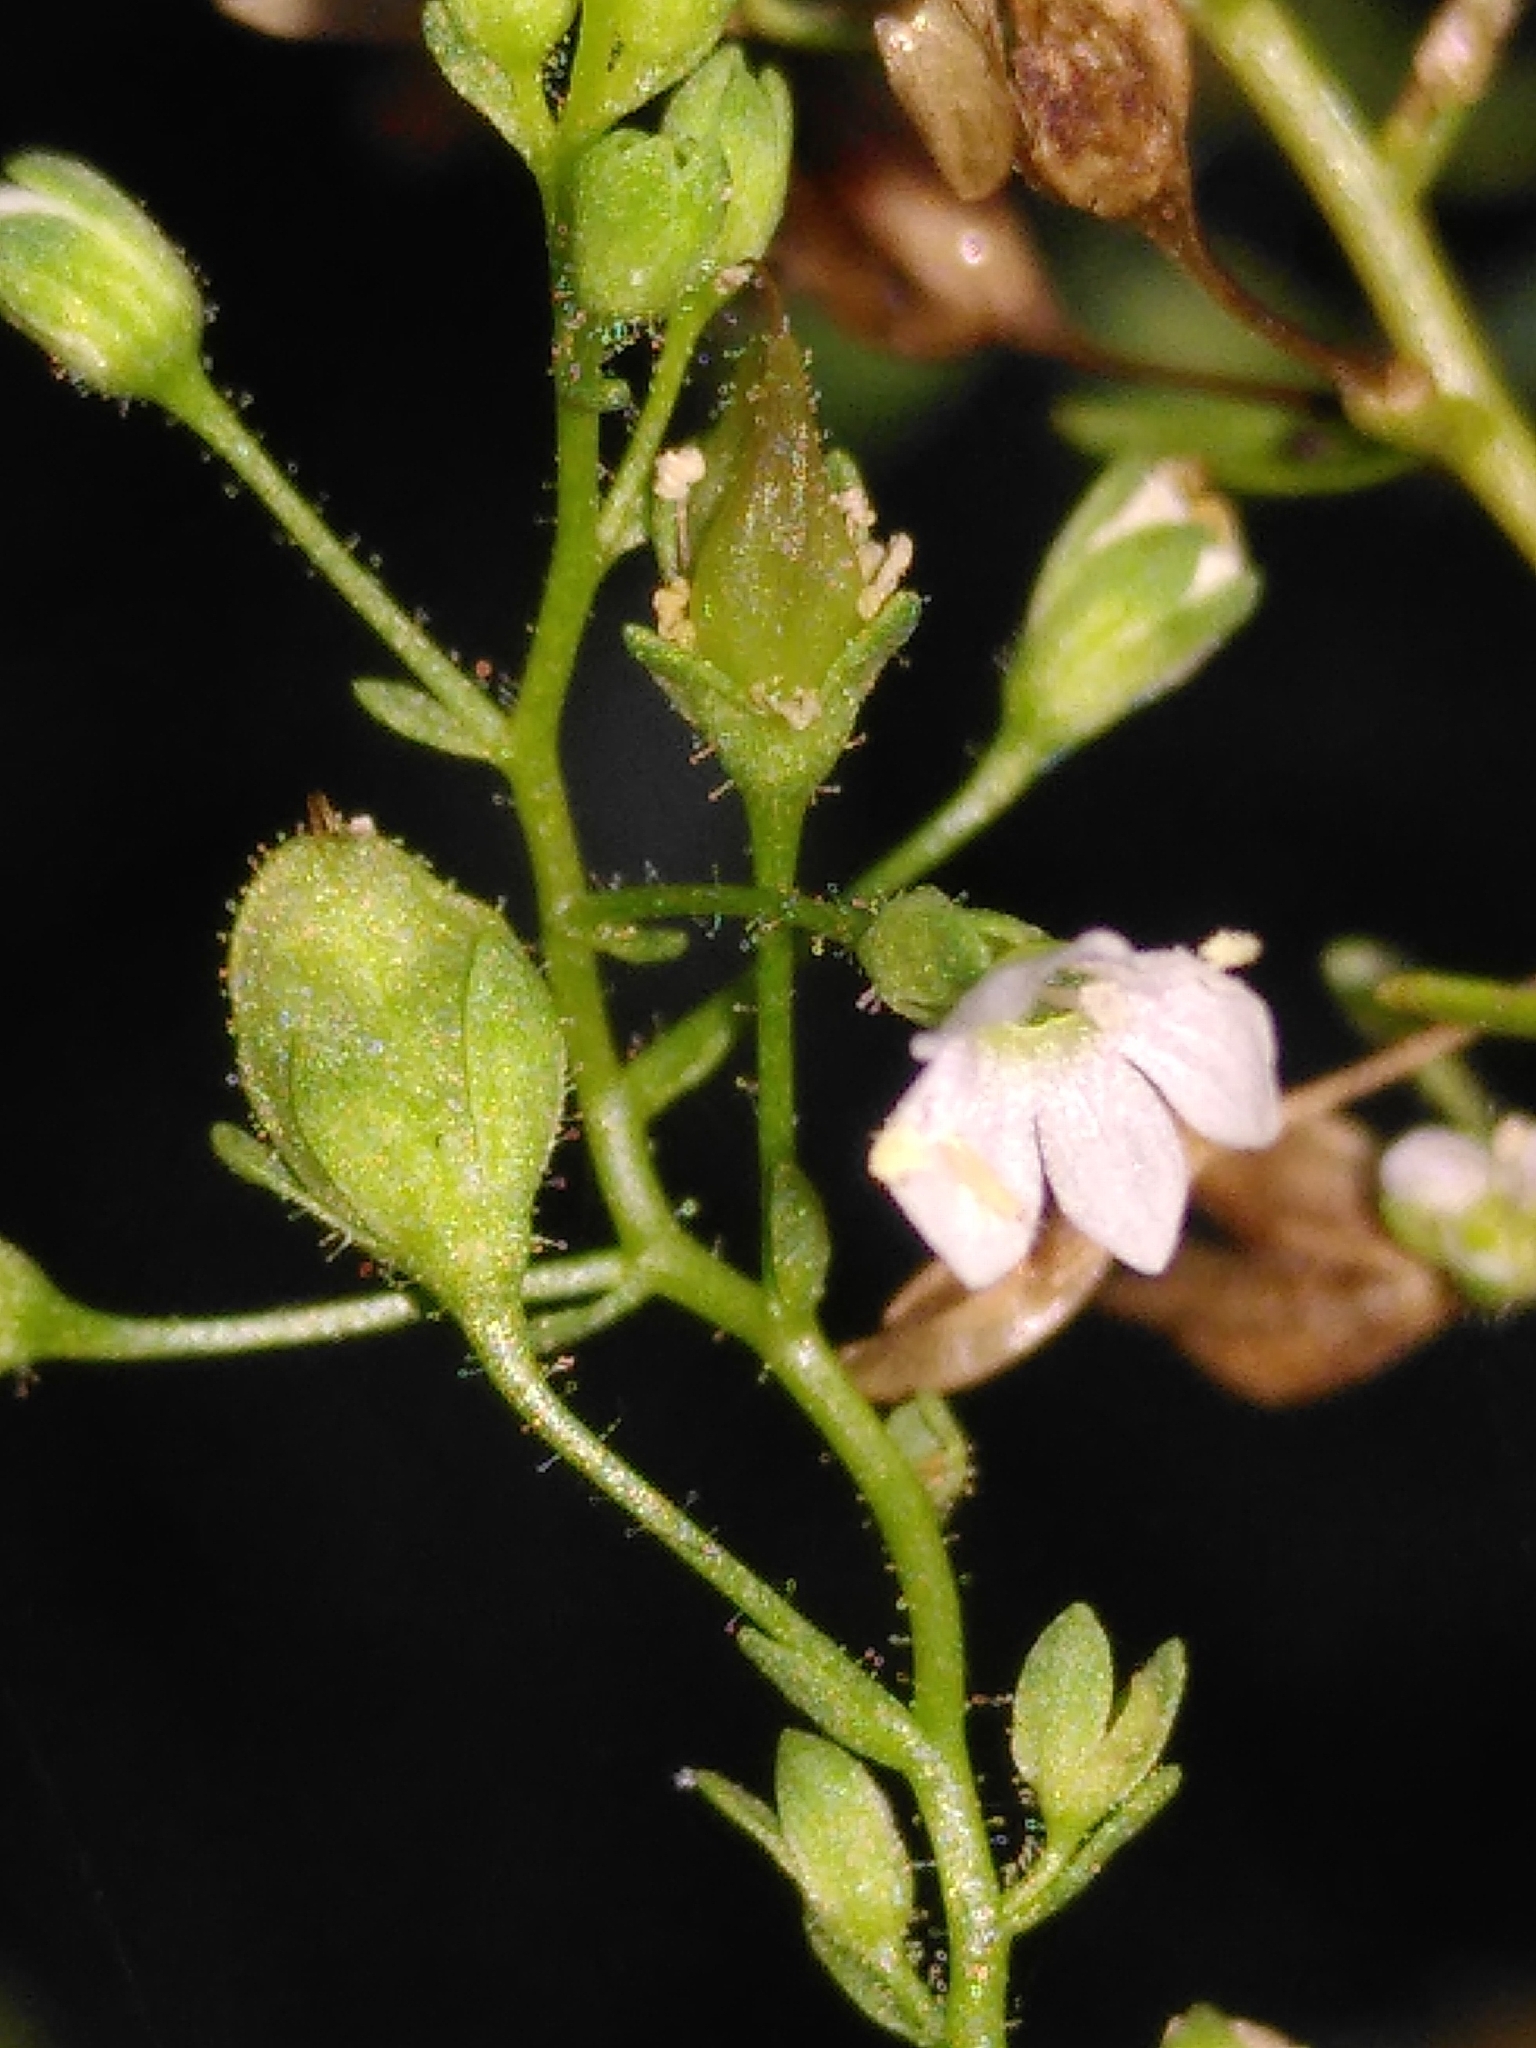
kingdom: Plantae
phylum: Tracheophyta
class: Magnoliopsida
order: Lamiales
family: Plantaginaceae
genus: Veronica
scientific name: Veronica anagalloides
